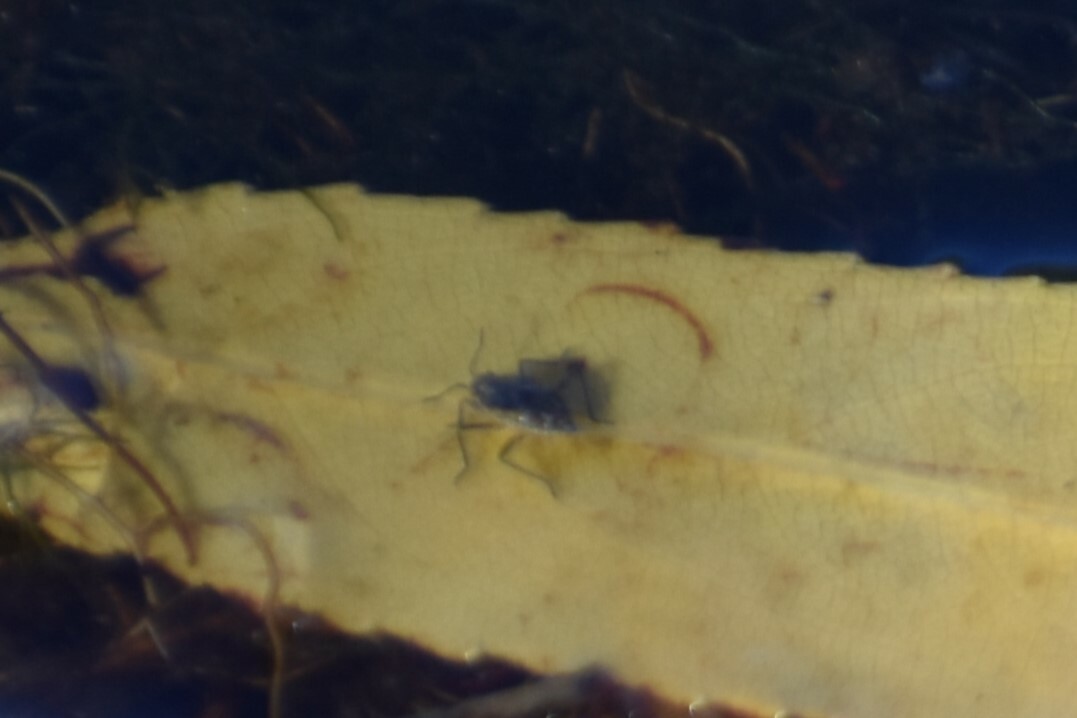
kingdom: Animalia
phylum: Arthropoda
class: Insecta
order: Hemiptera
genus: Kirkaldya
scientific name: Kirkaldya
